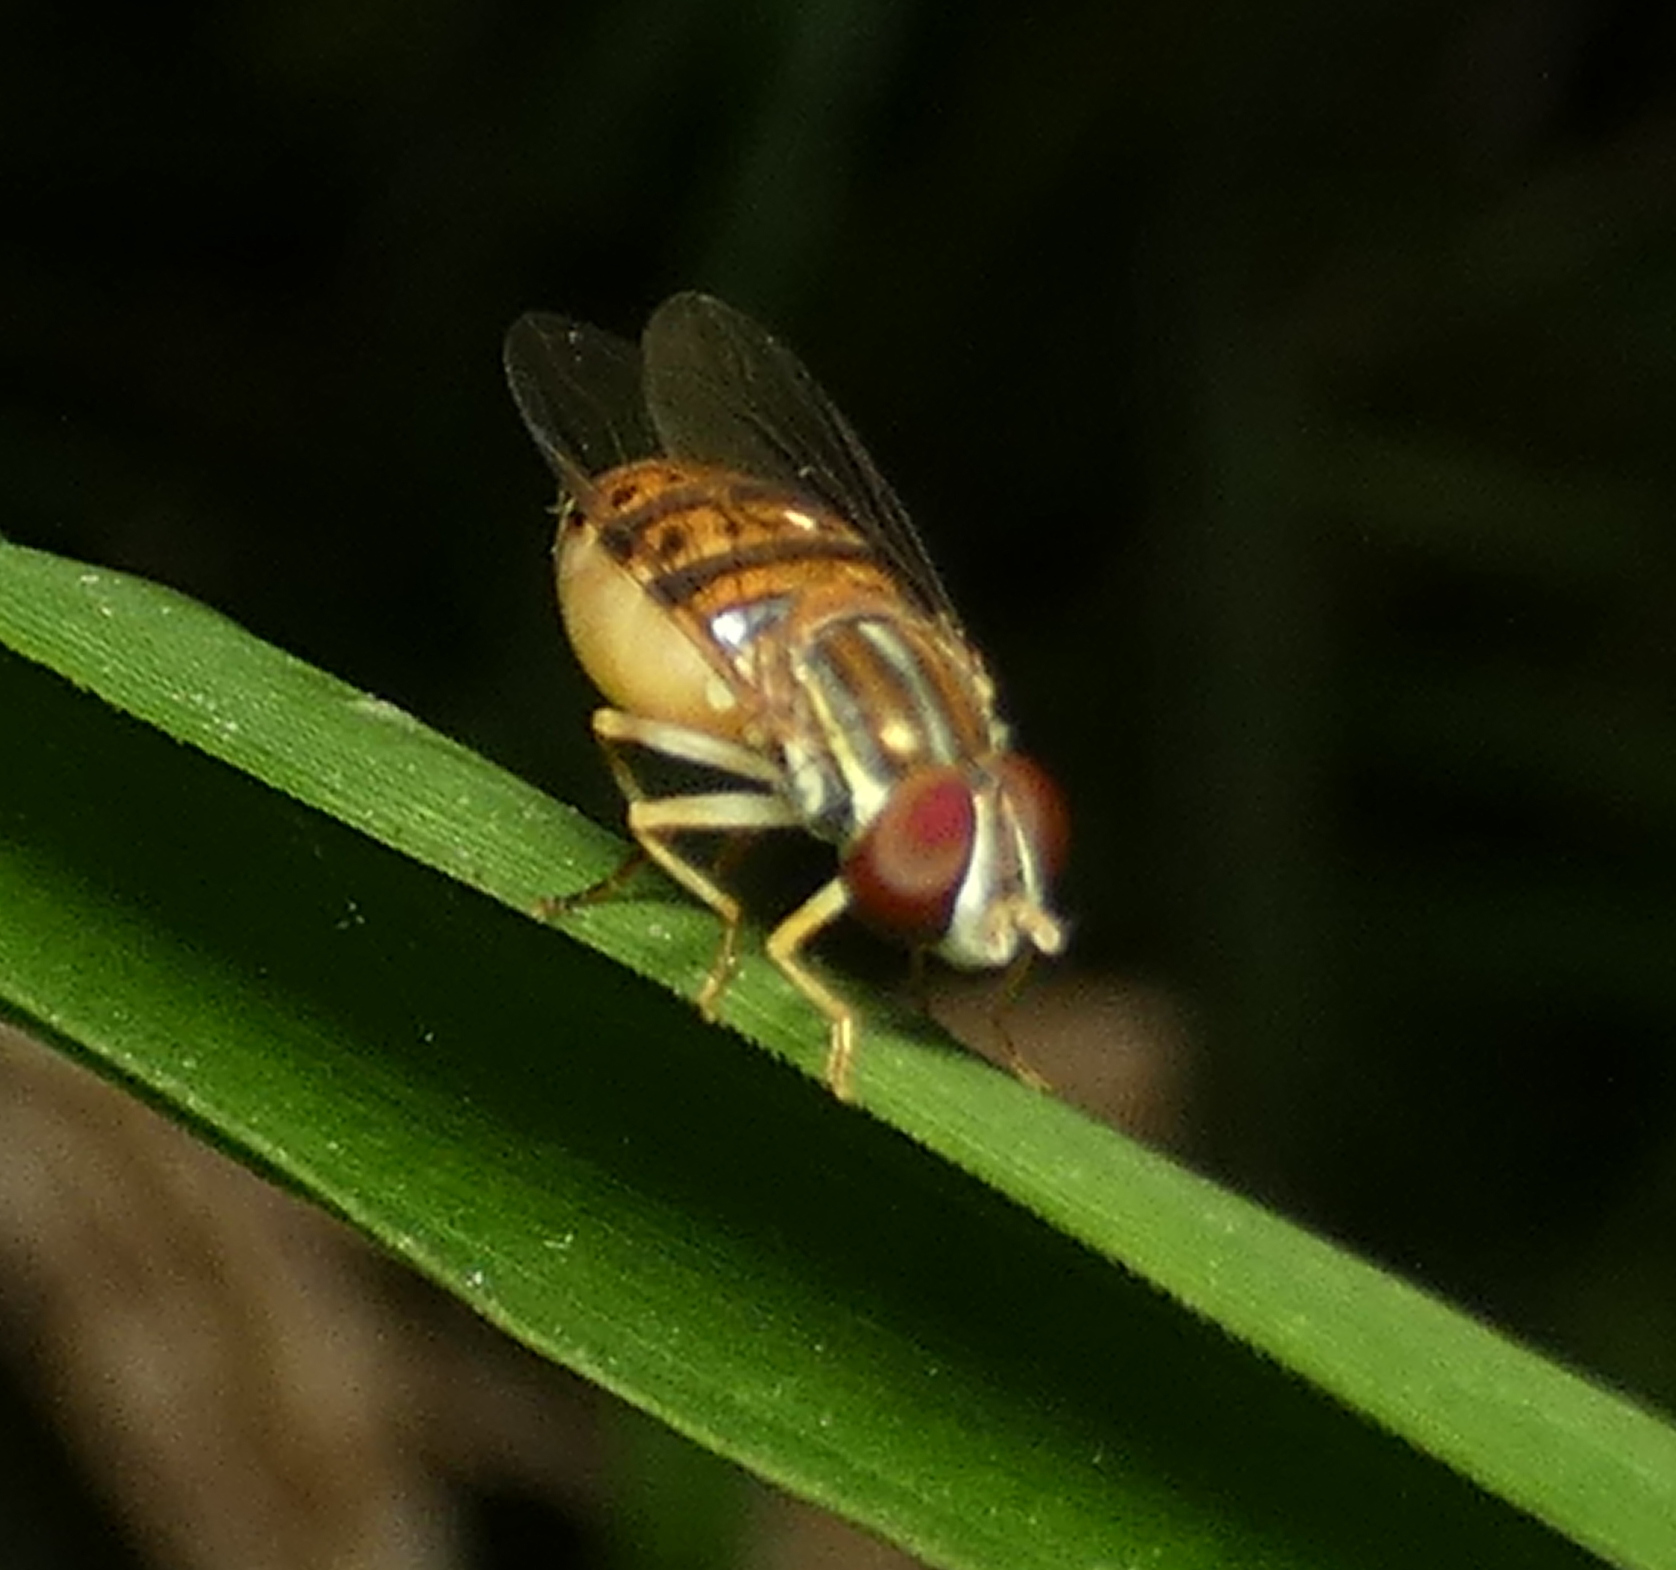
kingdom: Animalia
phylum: Arthropoda
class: Insecta
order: Diptera
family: Syrphidae
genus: Toxomerus
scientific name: Toxomerus pulchellus
